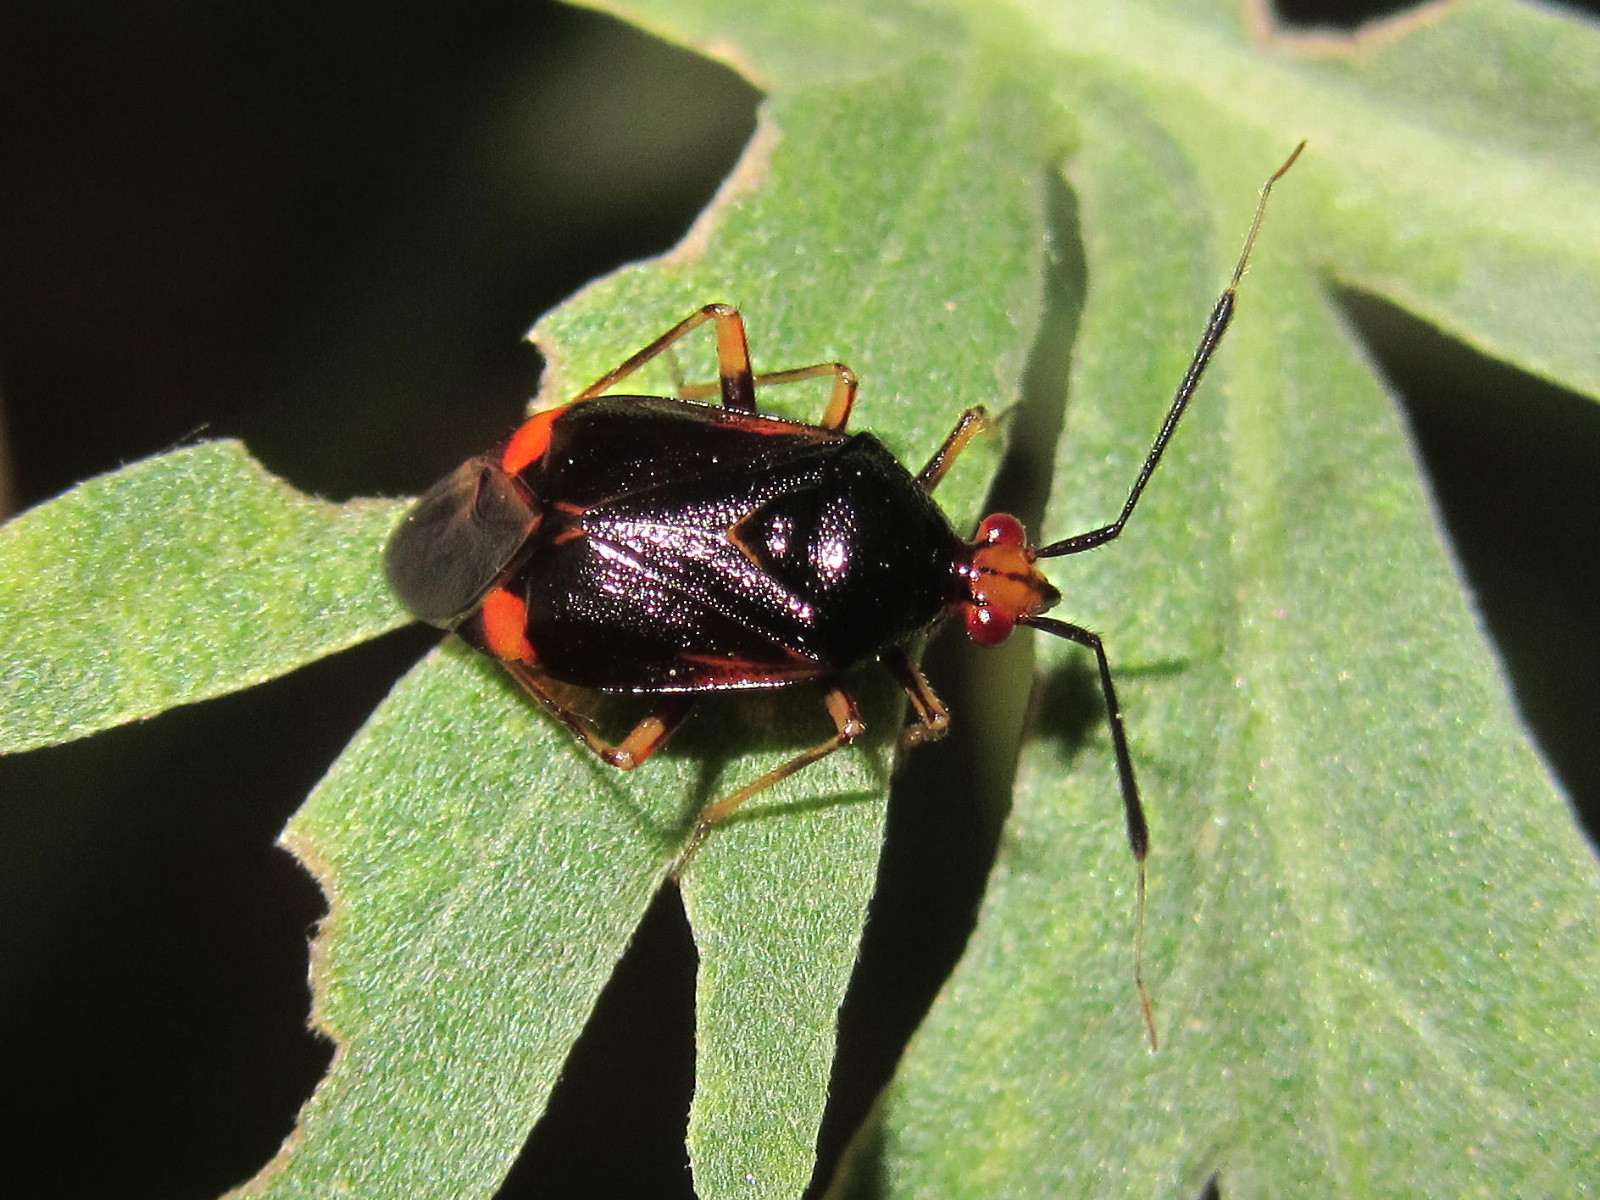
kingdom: Animalia
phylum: Arthropoda
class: Insecta
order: Hemiptera
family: Miridae
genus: Deraeocoris
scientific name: Deraeocoris ruber
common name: Plant bug
